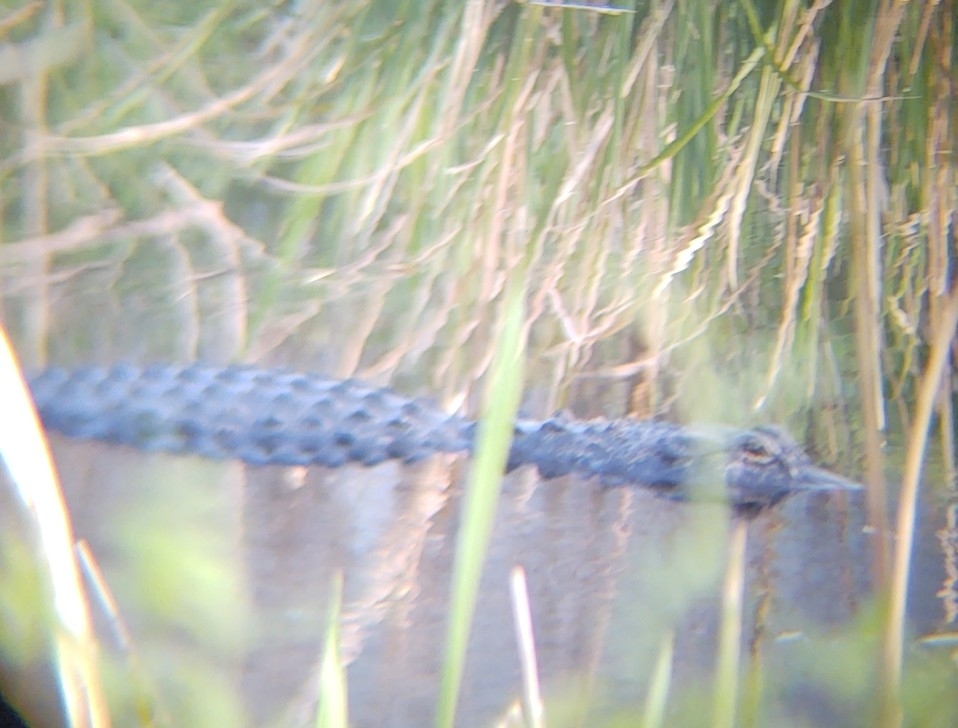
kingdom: Animalia
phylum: Chordata
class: Crocodylia
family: Alligatoridae
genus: Alligator
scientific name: Alligator mississippiensis
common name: American alligator
